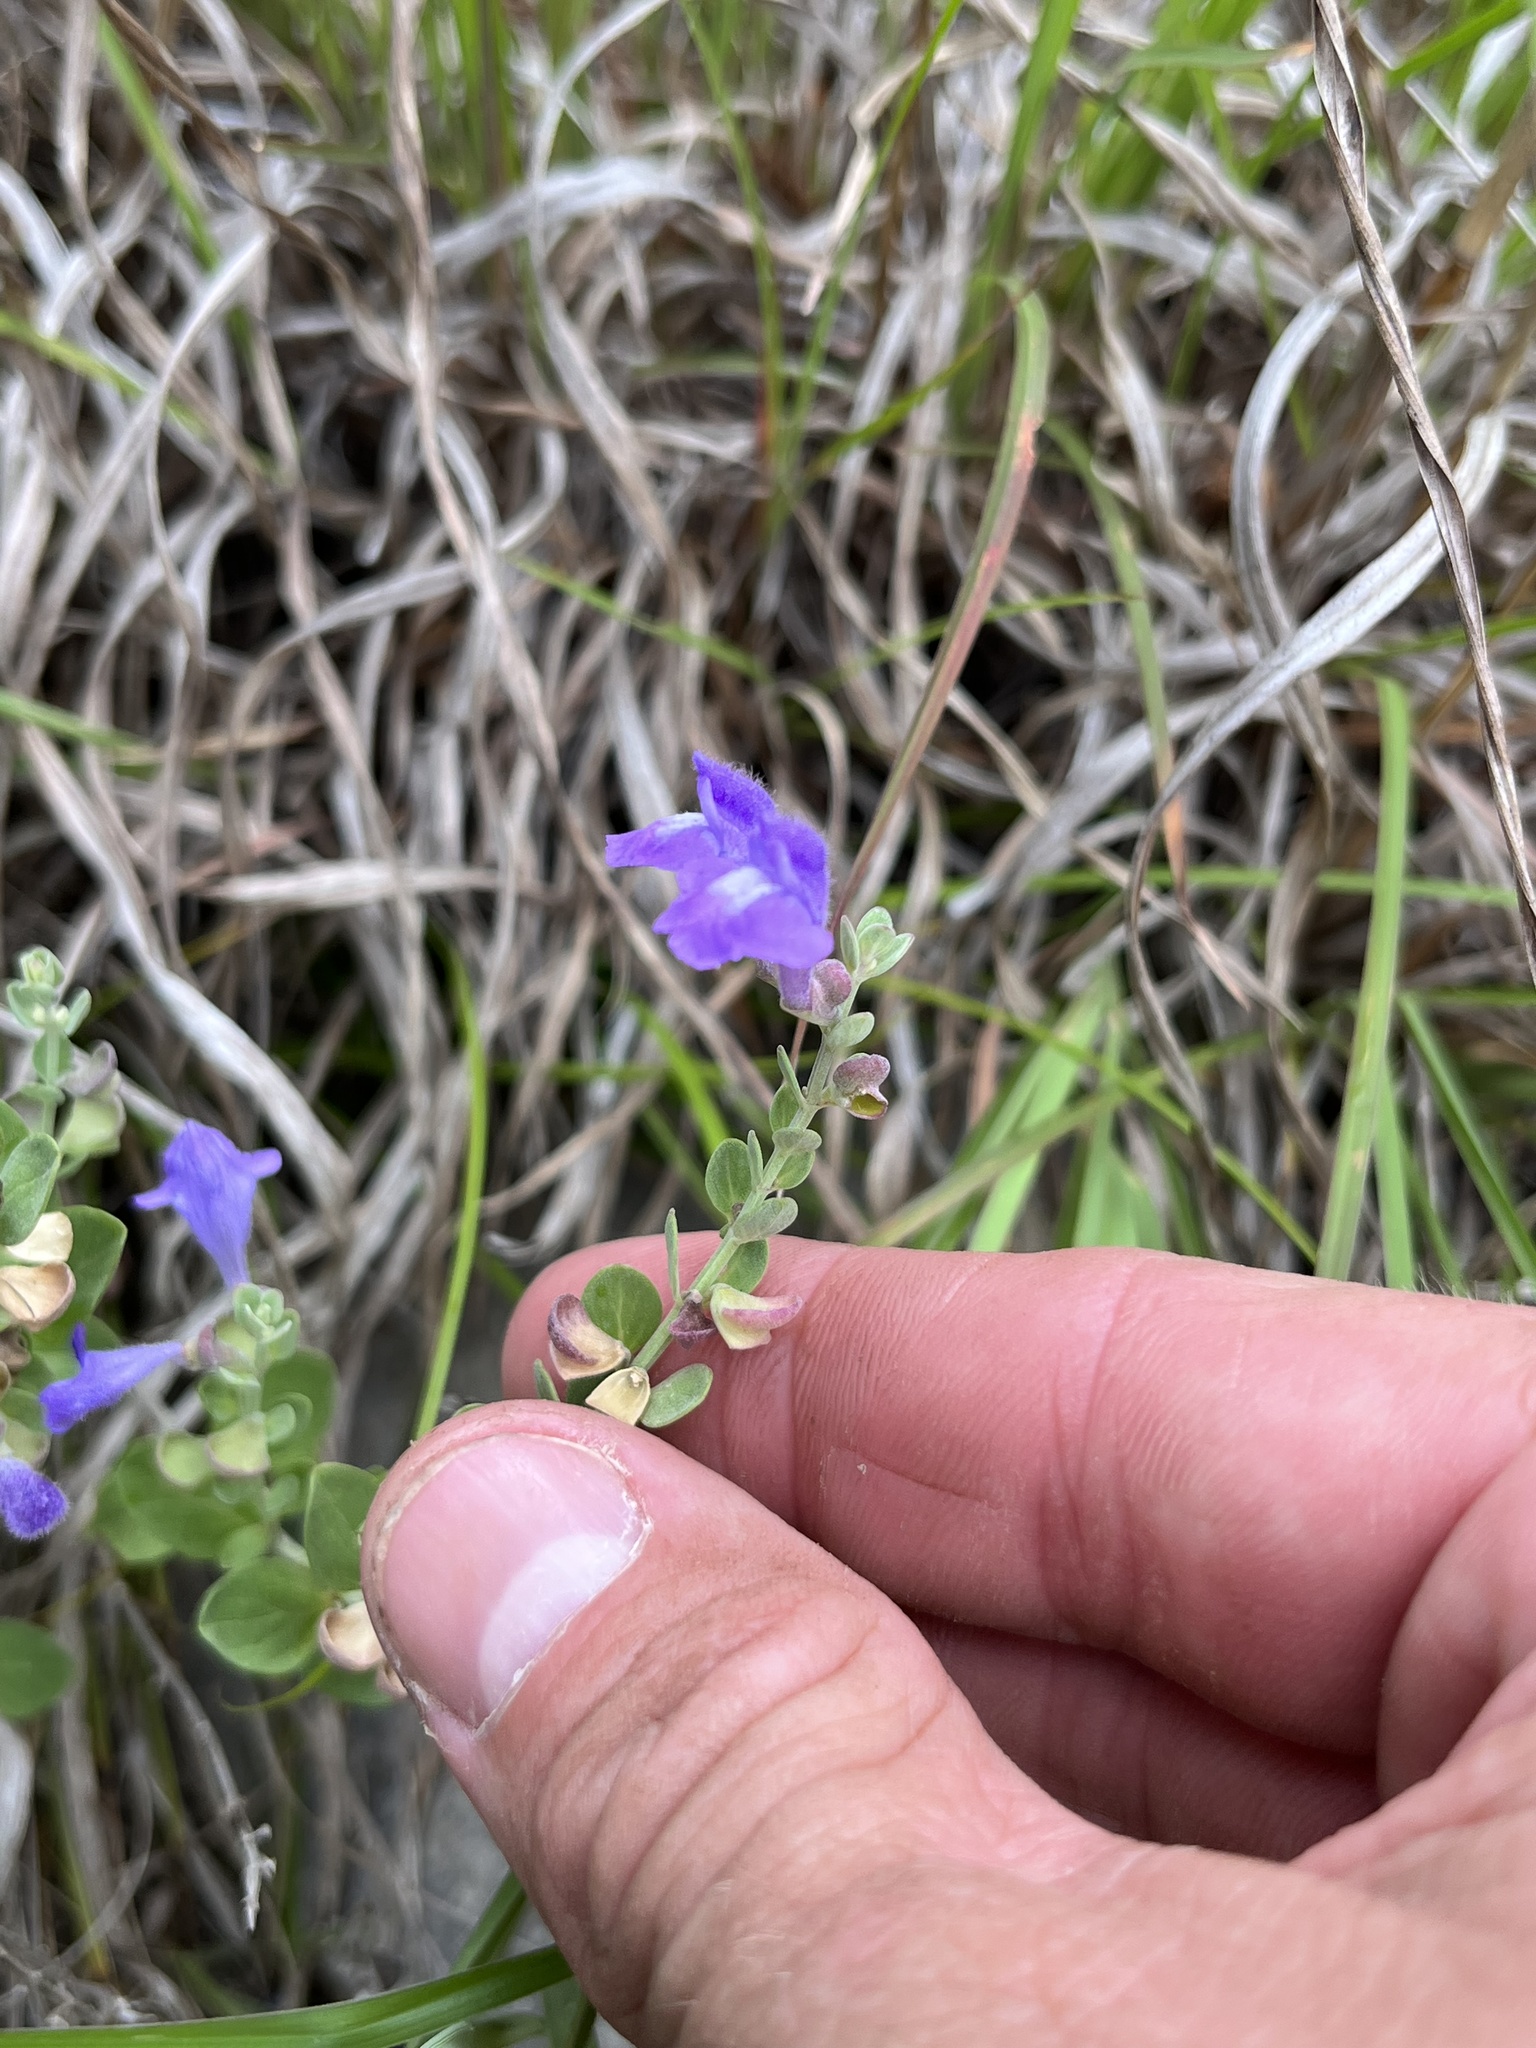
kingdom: Plantae
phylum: Tracheophyta
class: Magnoliopsida
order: Lamiales
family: Lamiaceae
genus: Scutellaria
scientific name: Scutellaria wrightii
